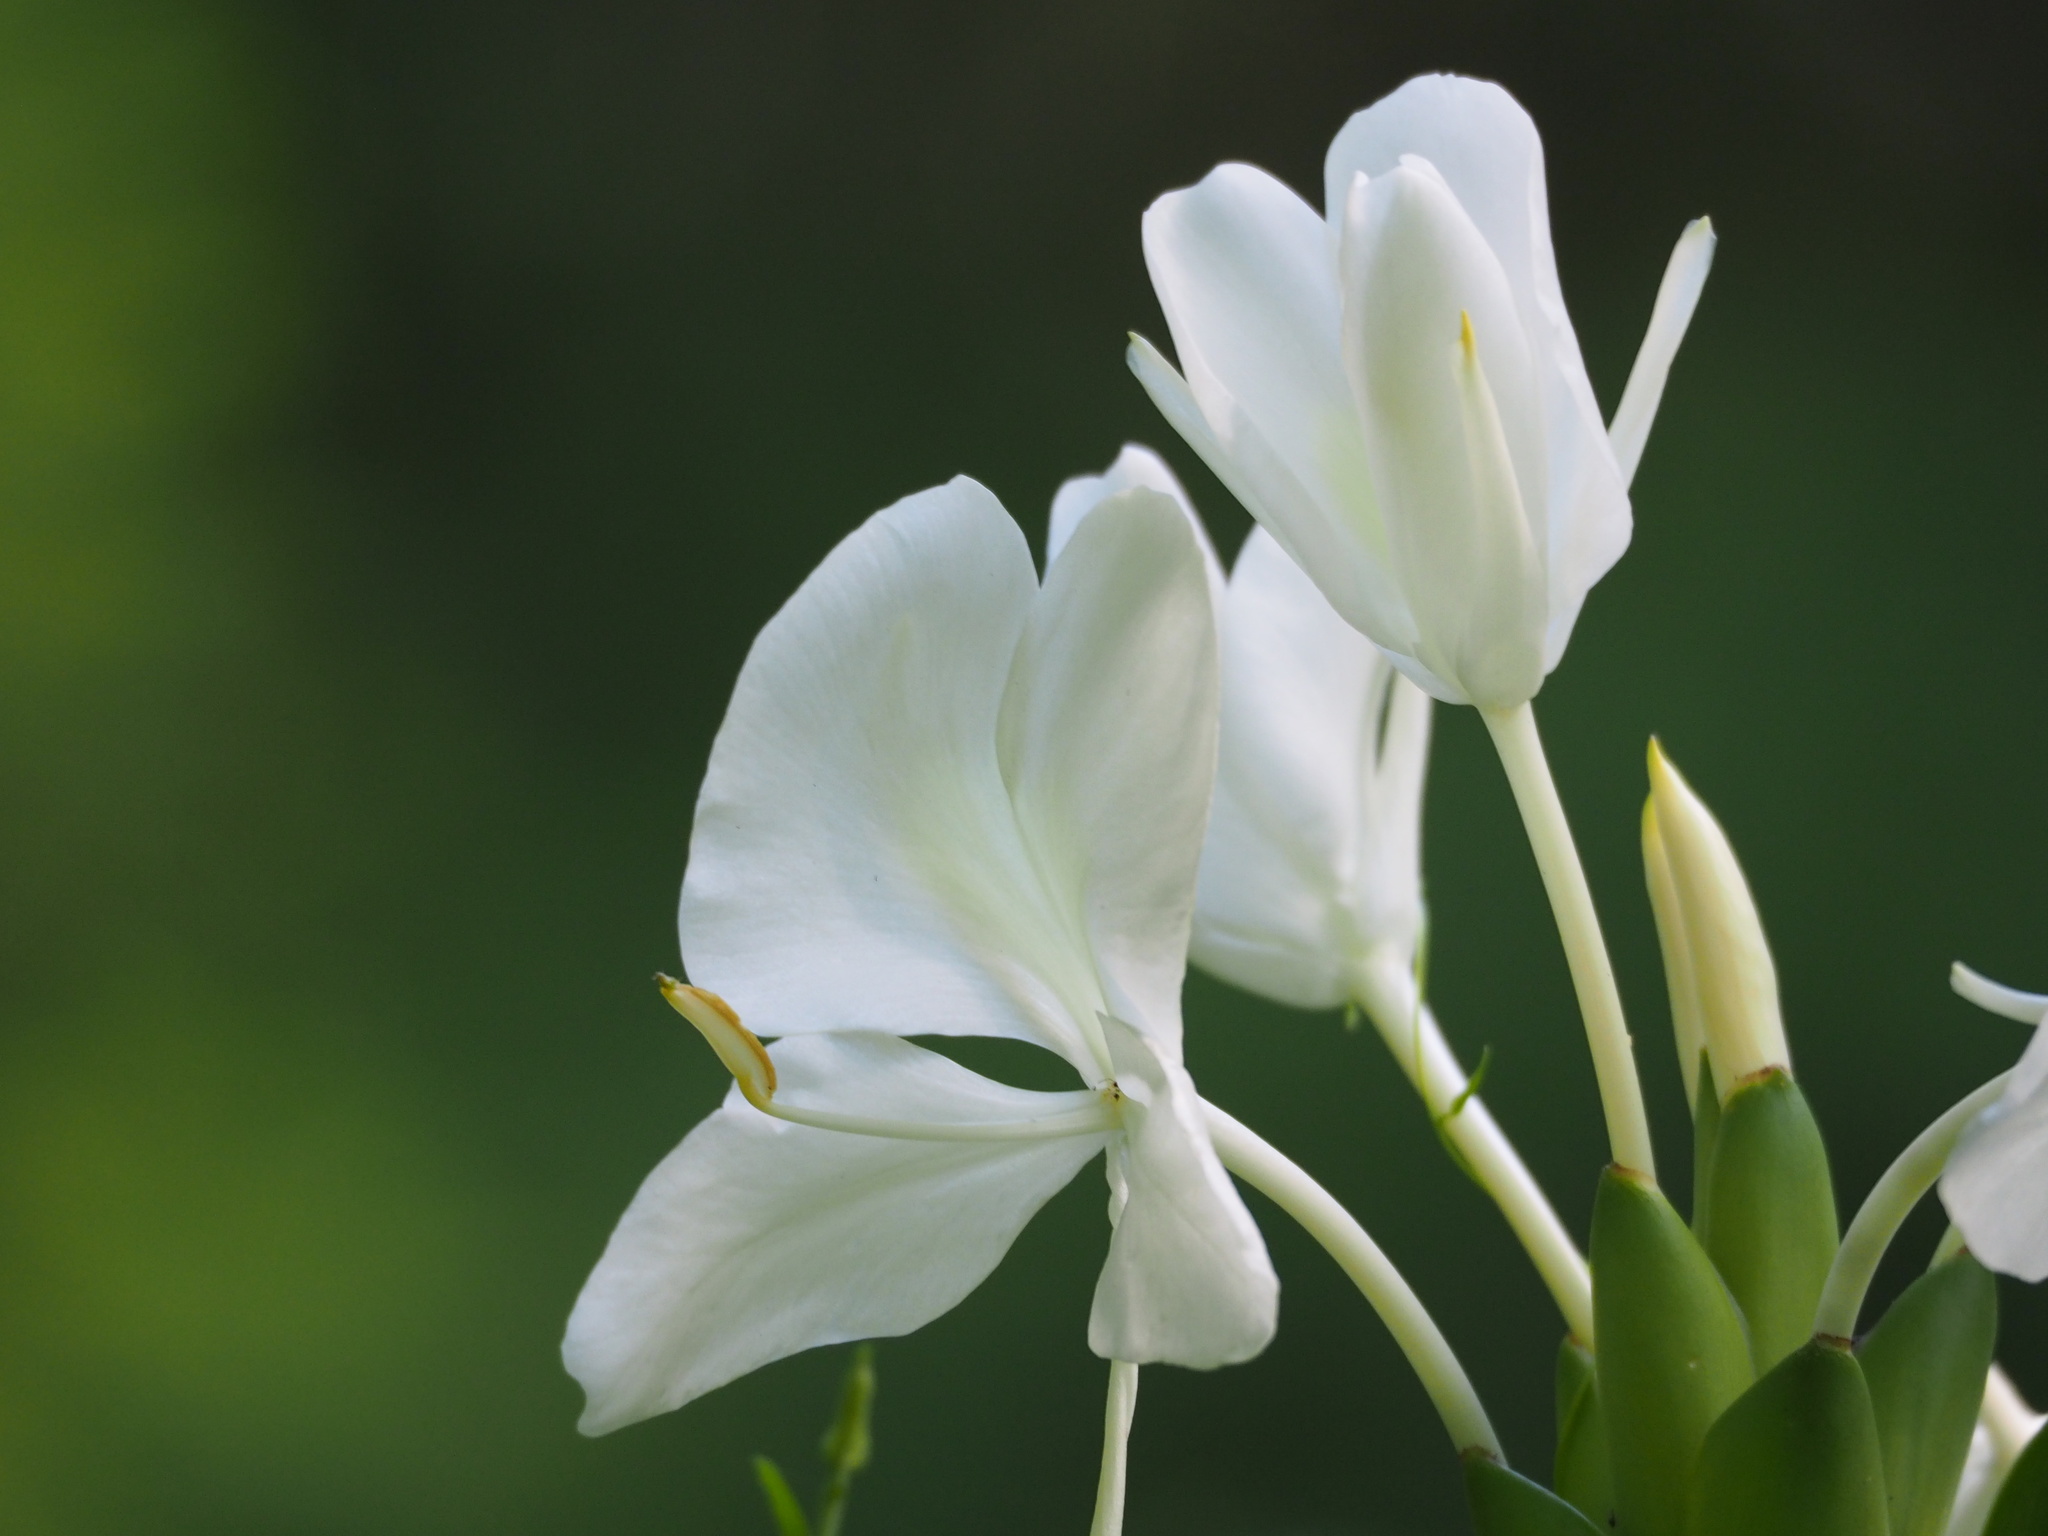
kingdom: Plantae
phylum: Tracheophyta
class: Liliopsida
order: Zingiberales
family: Zingiberaceae
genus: Hedychium
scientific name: Hedychium coronarium
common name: White garland-lily
